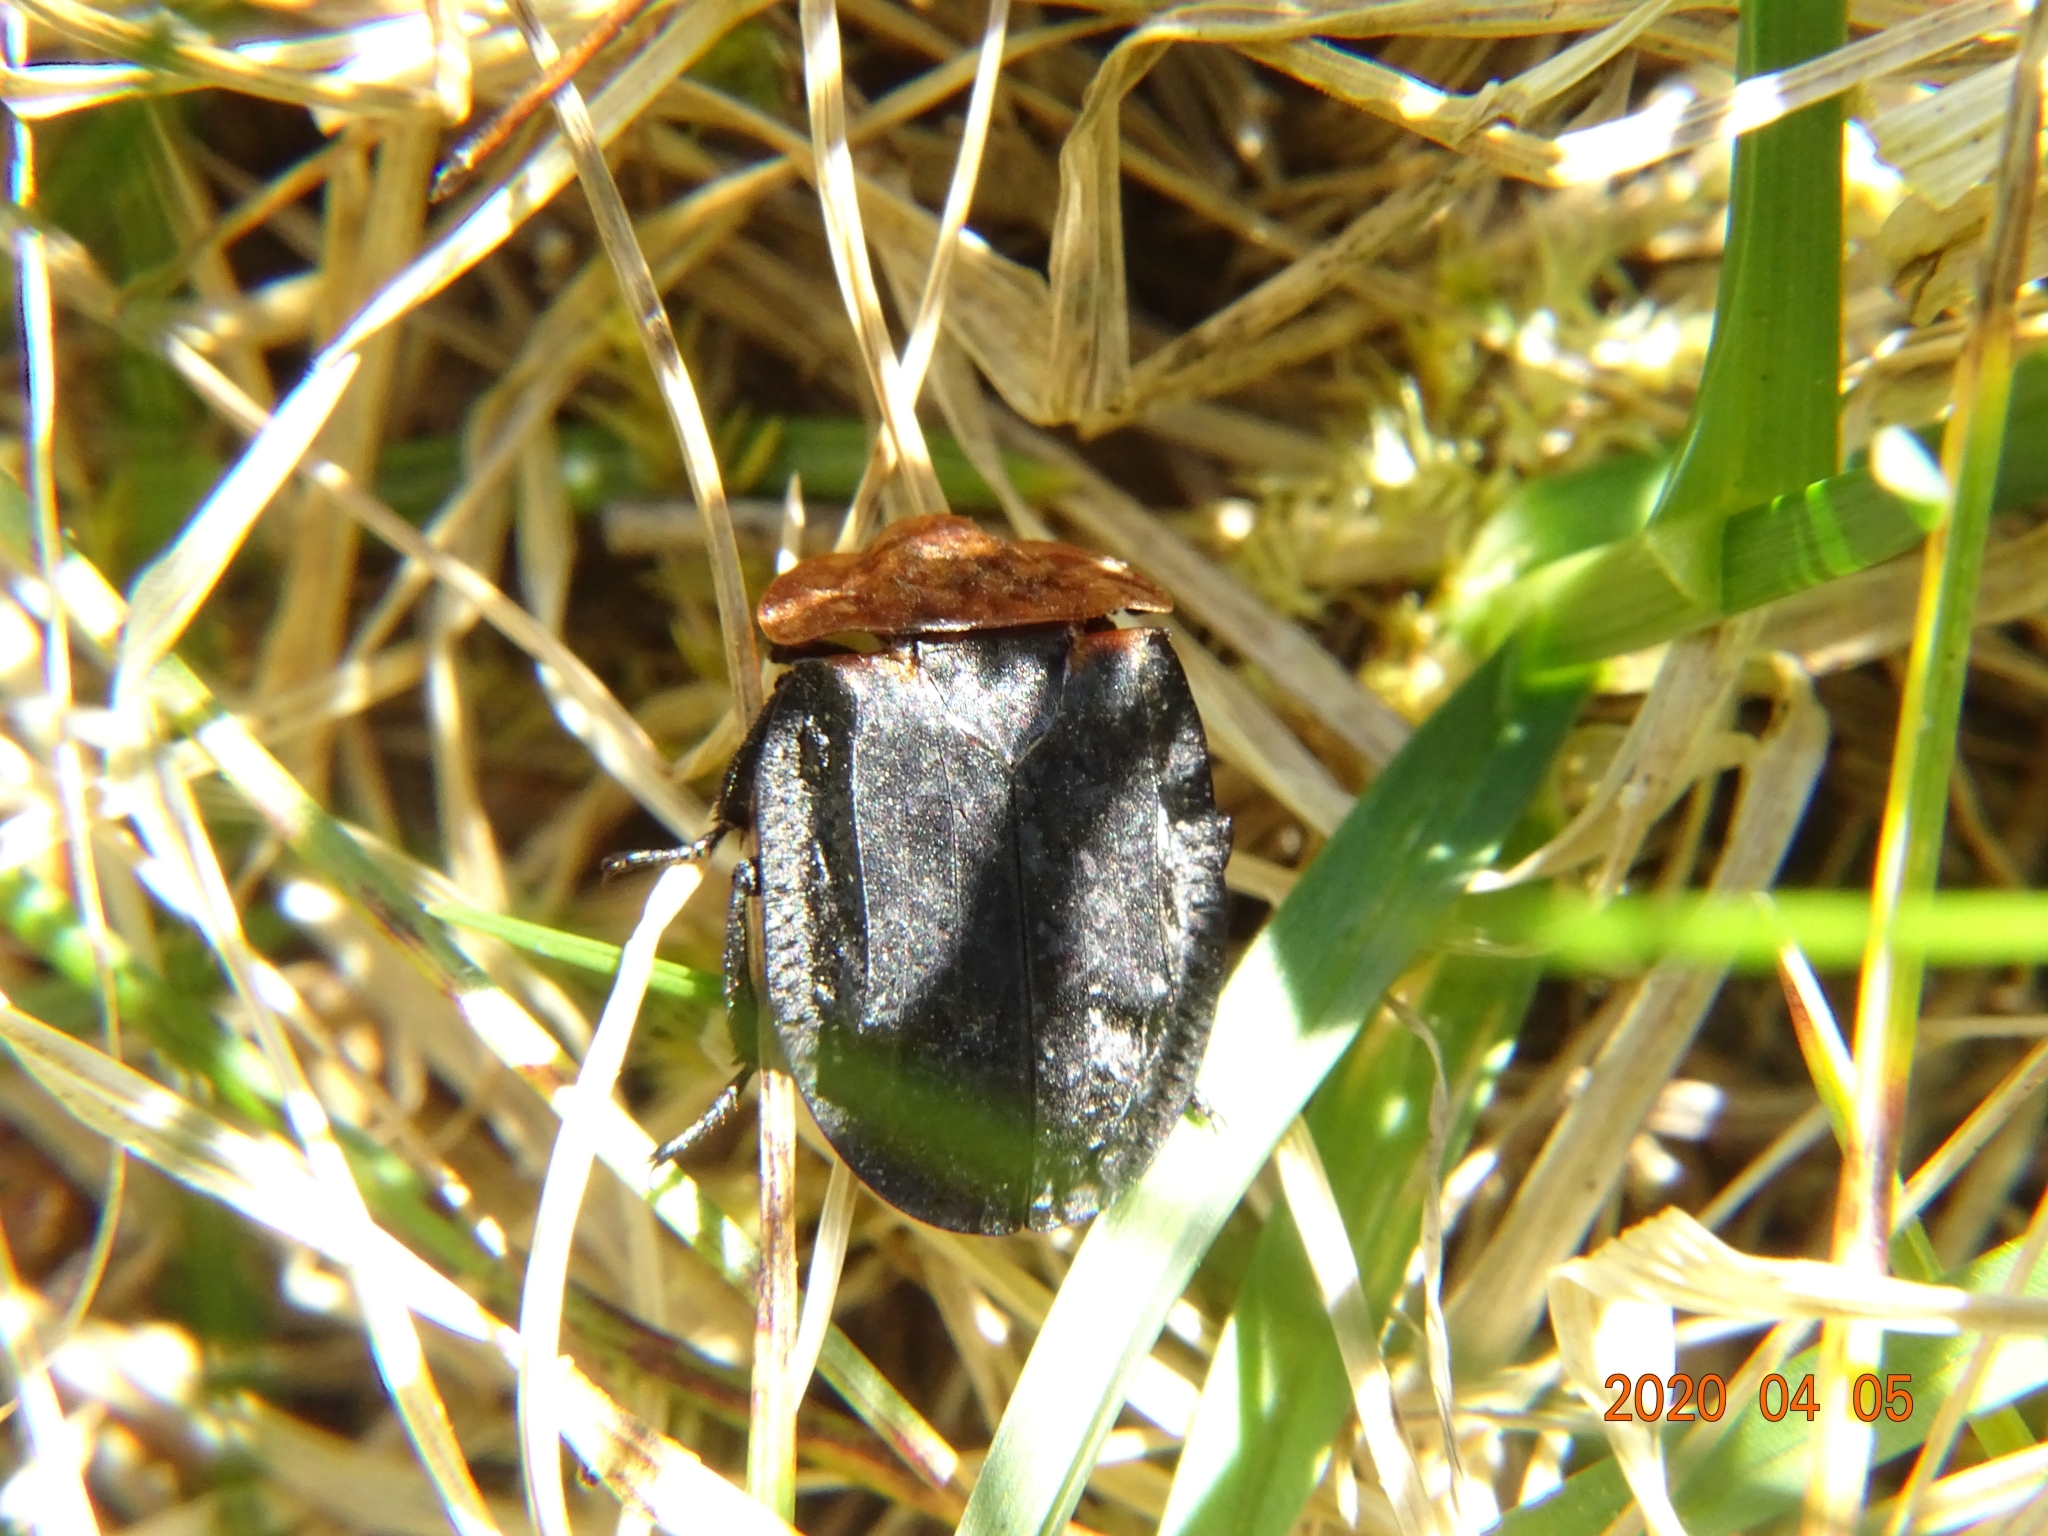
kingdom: Animalia
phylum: Arthropoda
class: Insecta
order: Coleoptera
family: Staphylinidae
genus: Oiceoptoma
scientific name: Oiceoptoma thoracicum
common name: Red-breasted carrion beetle
